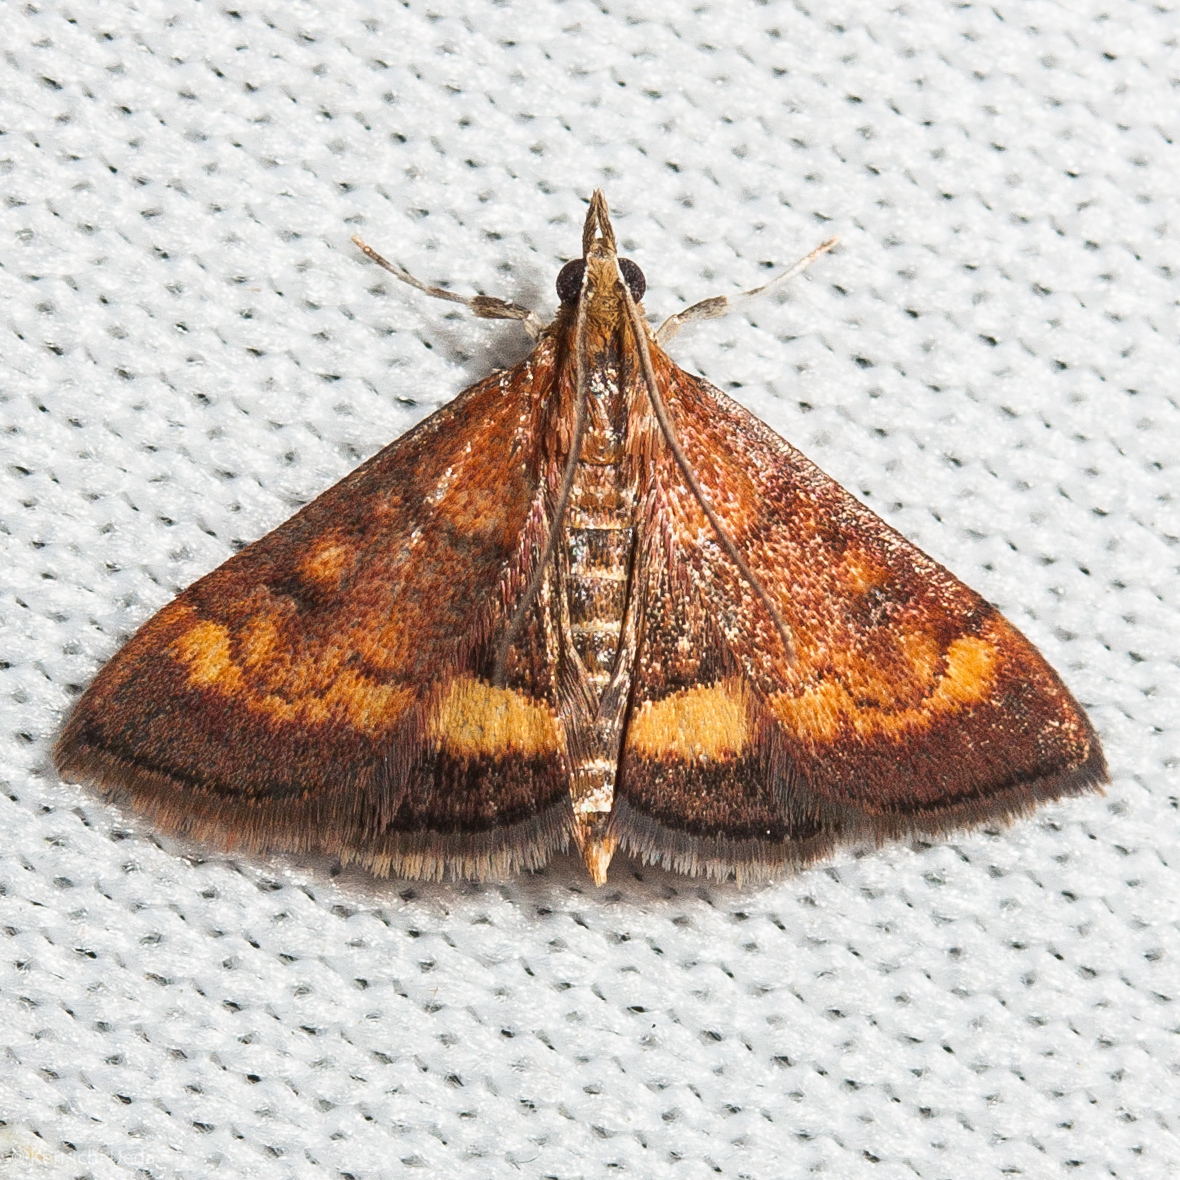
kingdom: Animalia
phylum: Arthropoda
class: Insecta
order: Lepidoptera
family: Crambidae
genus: Pyrausta
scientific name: Pyrausta californicalis
